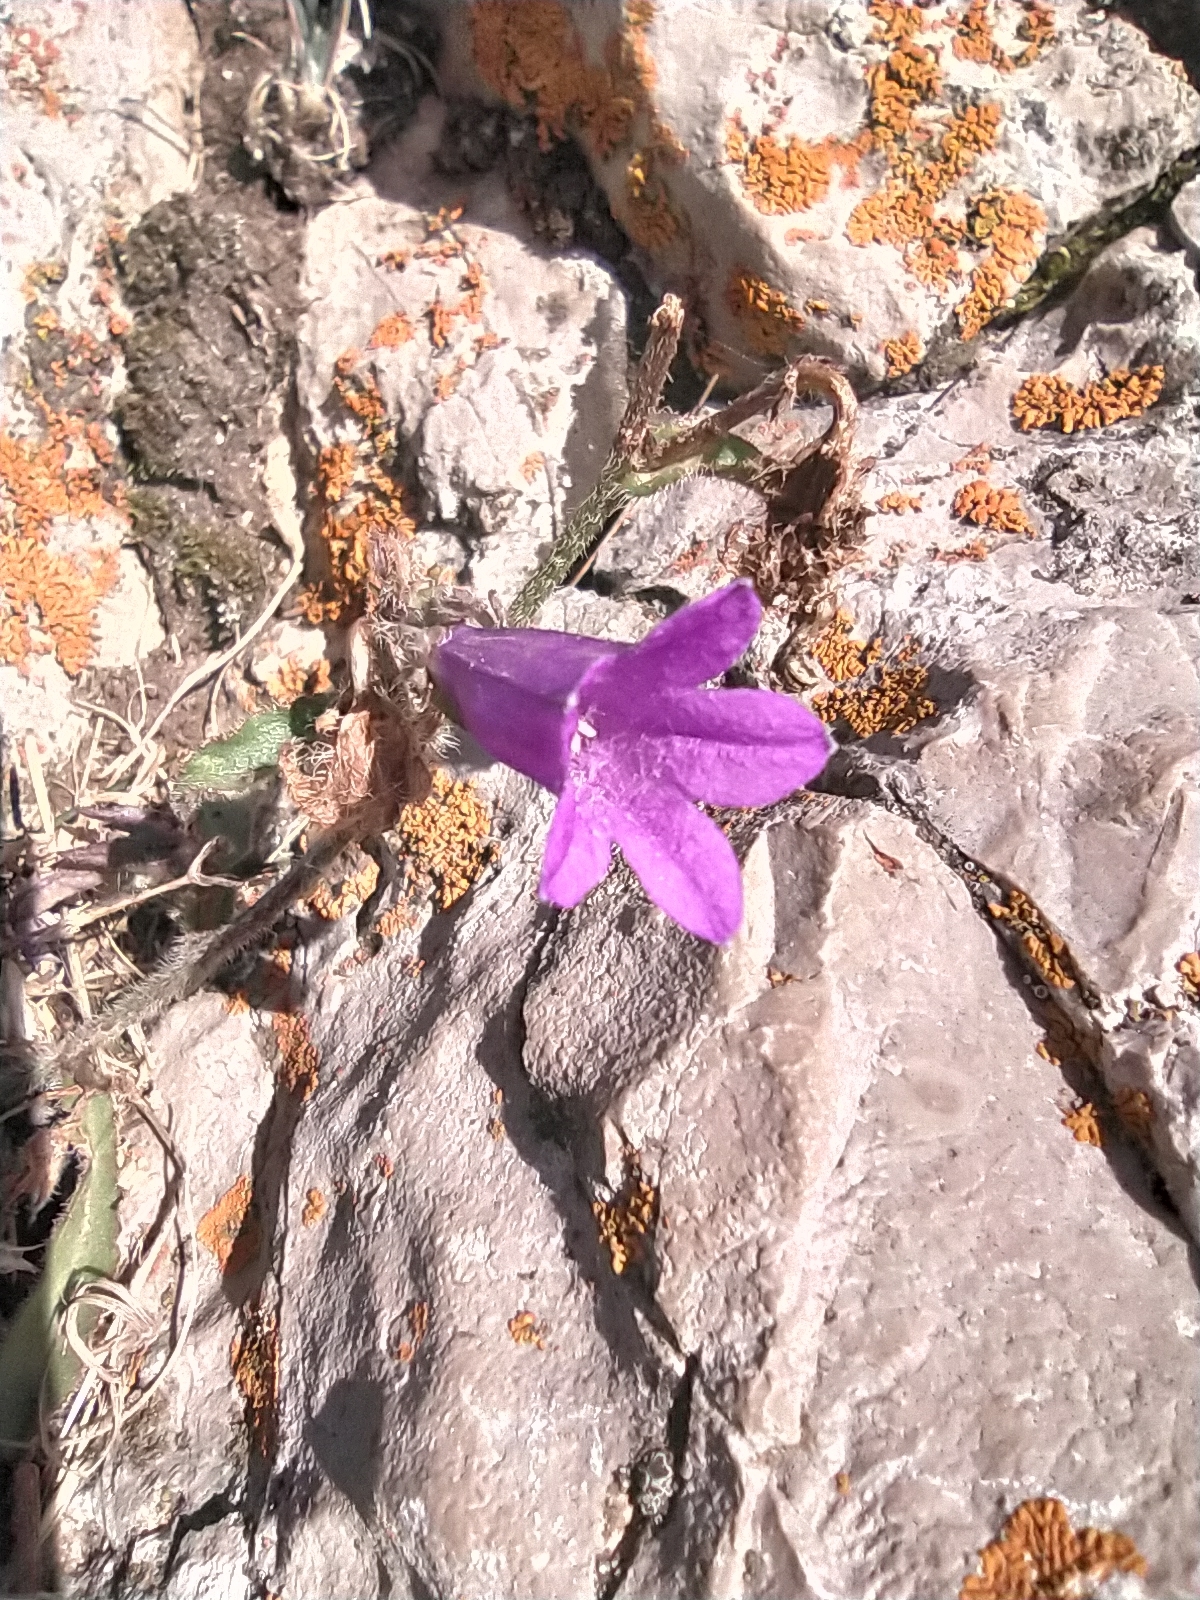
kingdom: Plantae
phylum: Tracheophyta
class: Magnoliopsida
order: Asterales
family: Campanulaceae
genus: Campanula
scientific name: Campanula sibirica
